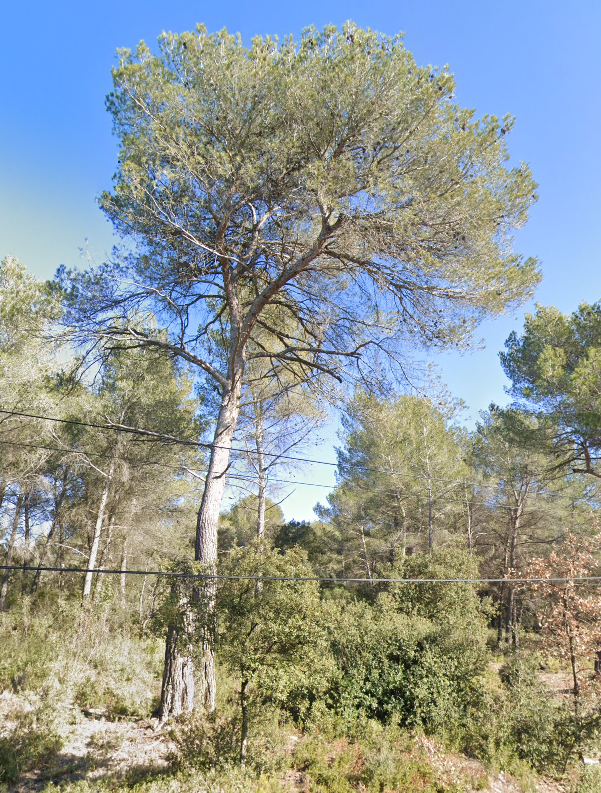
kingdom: Plantae
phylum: Tracheophyta
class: Pinopsida
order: Pinales
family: Pinaceae
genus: Pinus
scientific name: Pinus halepensis
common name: Aleppo pine
